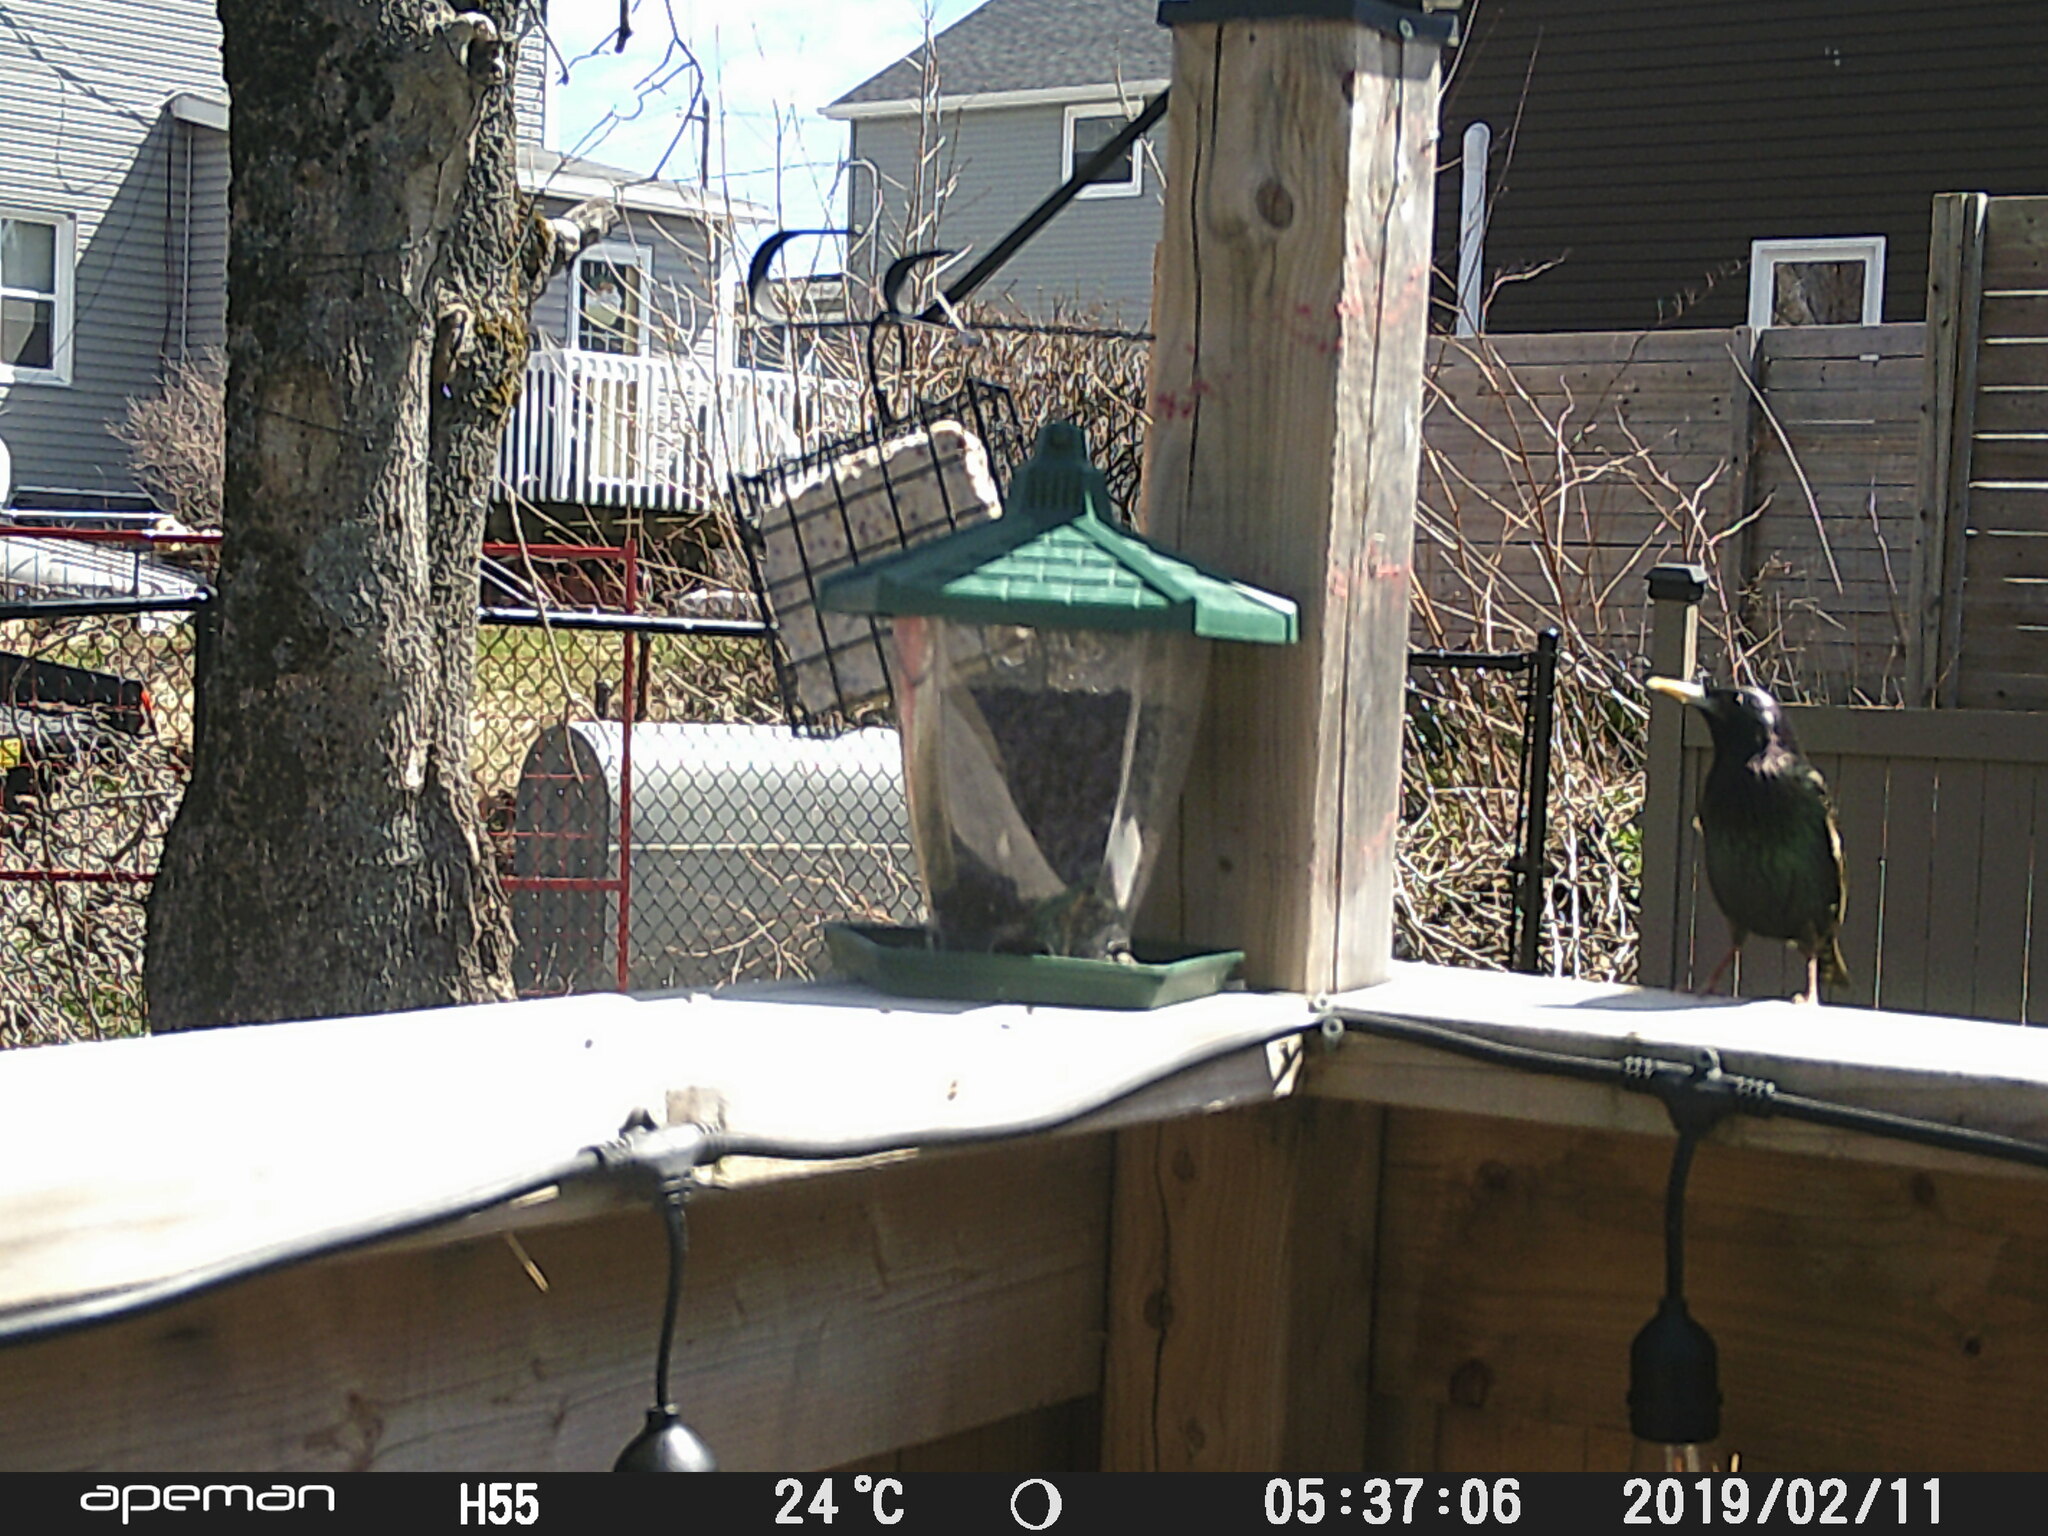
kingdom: Animalia
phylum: Chordata
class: Aves
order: Passeriformes
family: Sturnidae
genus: Sturnus
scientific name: Sturnus vulgaris
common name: Common starling
